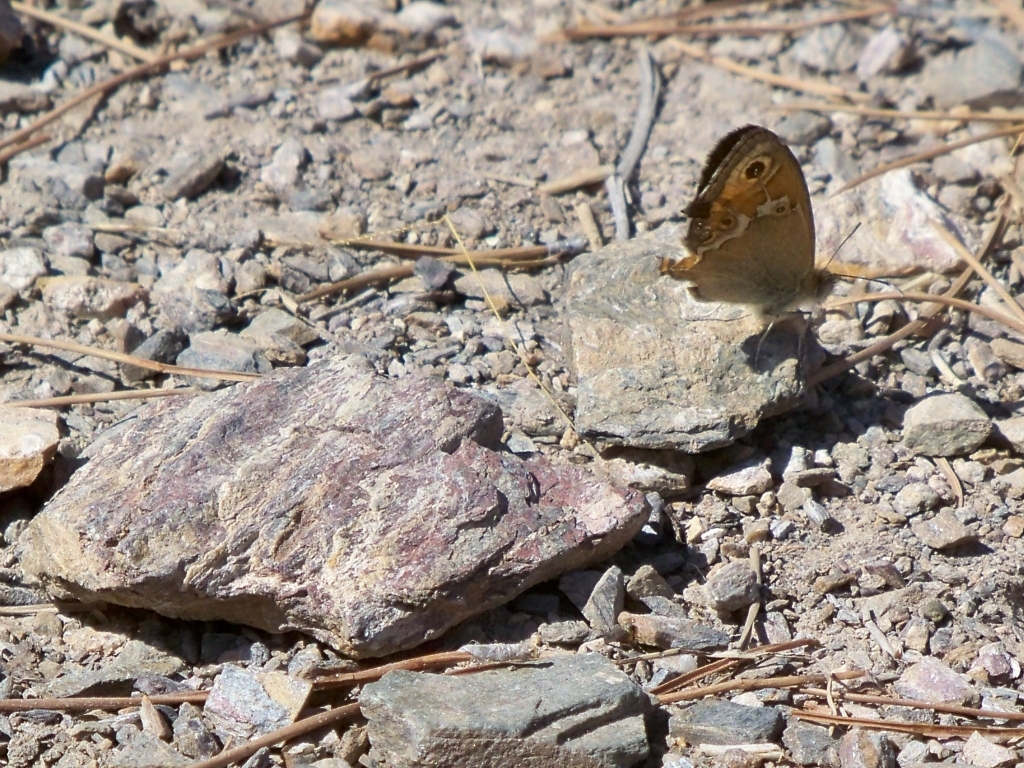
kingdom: Animalia
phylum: Arthropoda
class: Insecta
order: Lepidoptera
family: Nymphalidae
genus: Coenonympha
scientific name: Coenonympha dorus
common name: Dusky heath
